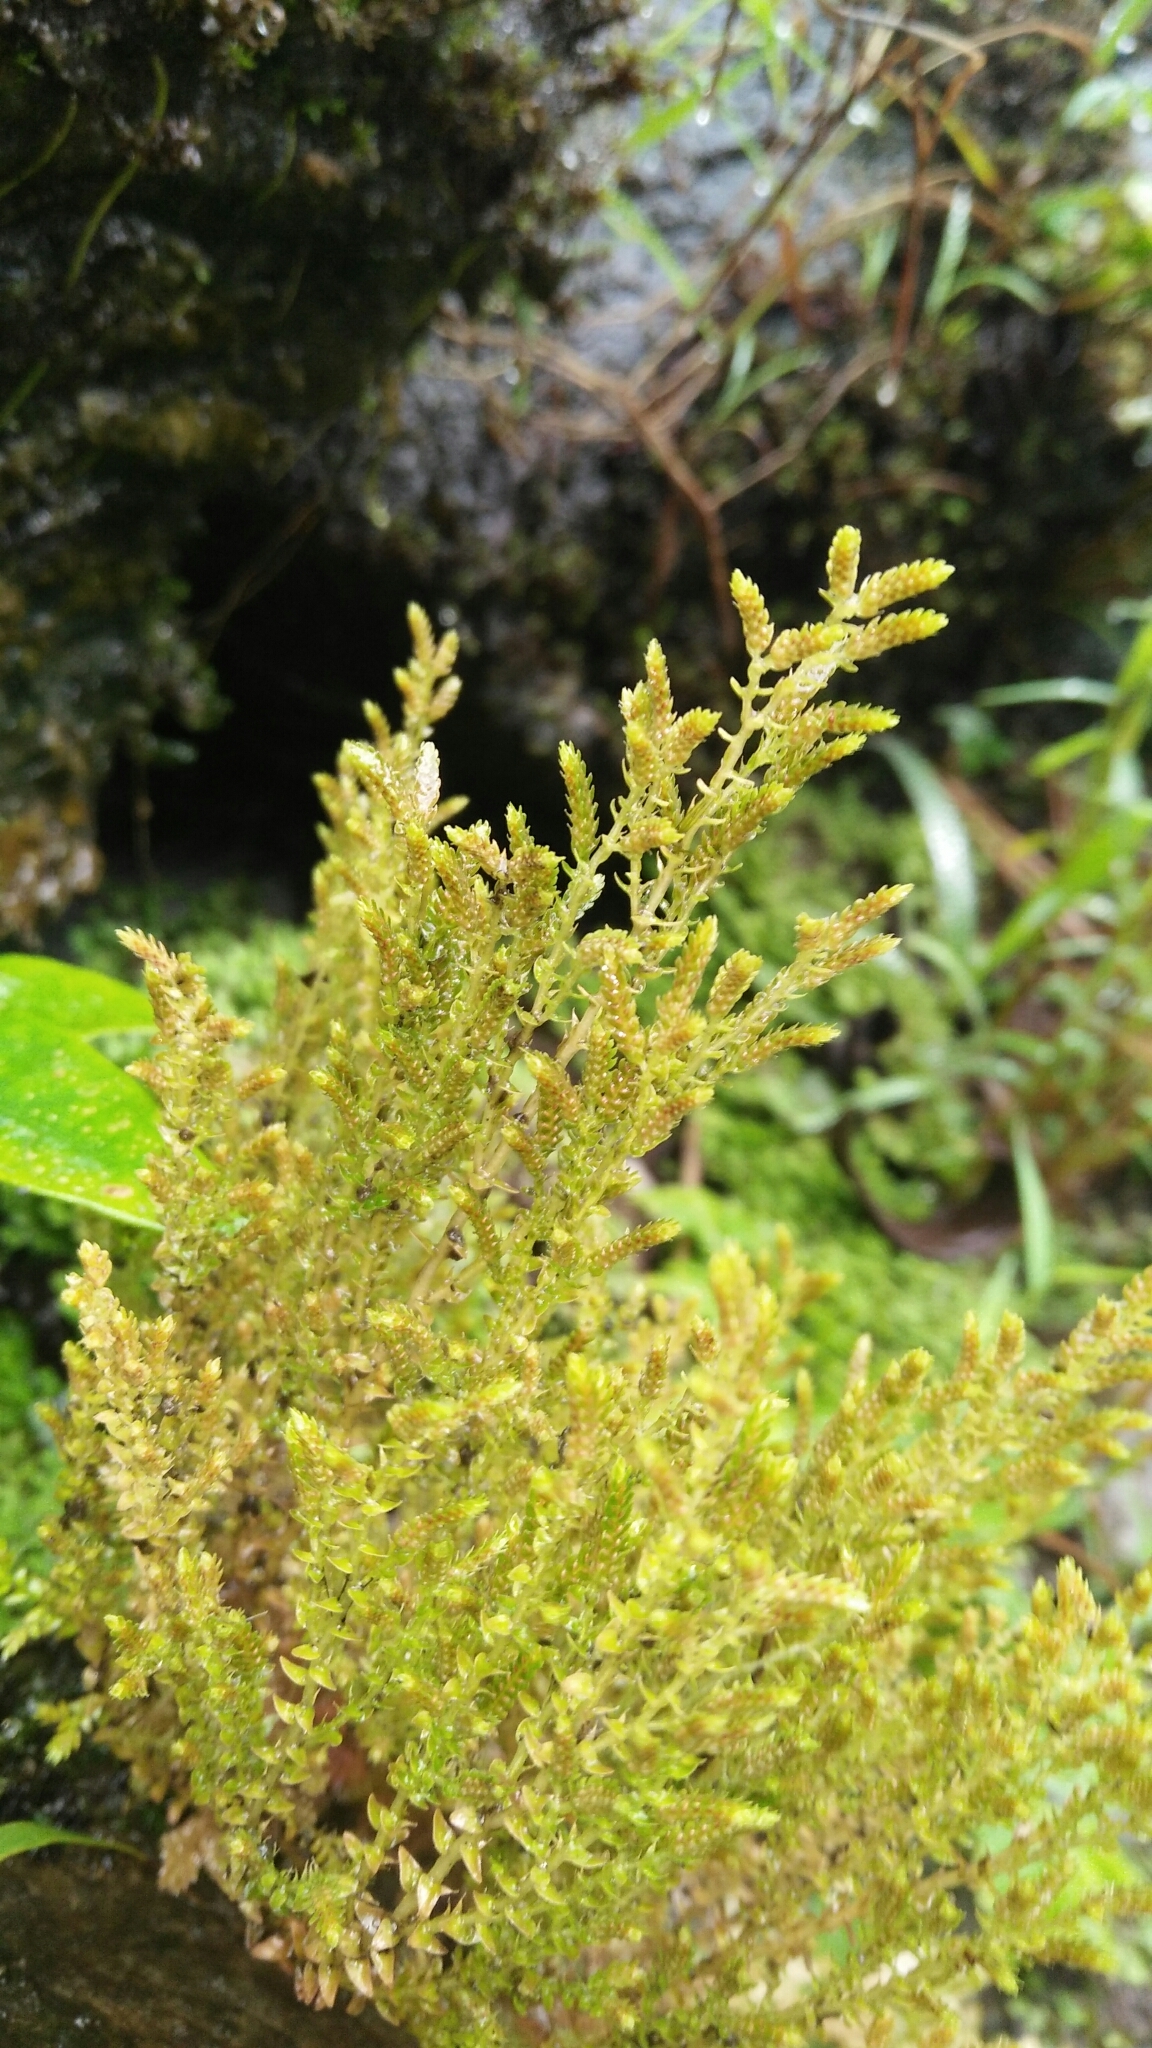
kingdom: Plantae
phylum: Tracheophyta
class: Lycopodiopsida
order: Selaginellales
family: Selaginellaceae
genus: Selaginella
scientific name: Selaginella aristata
